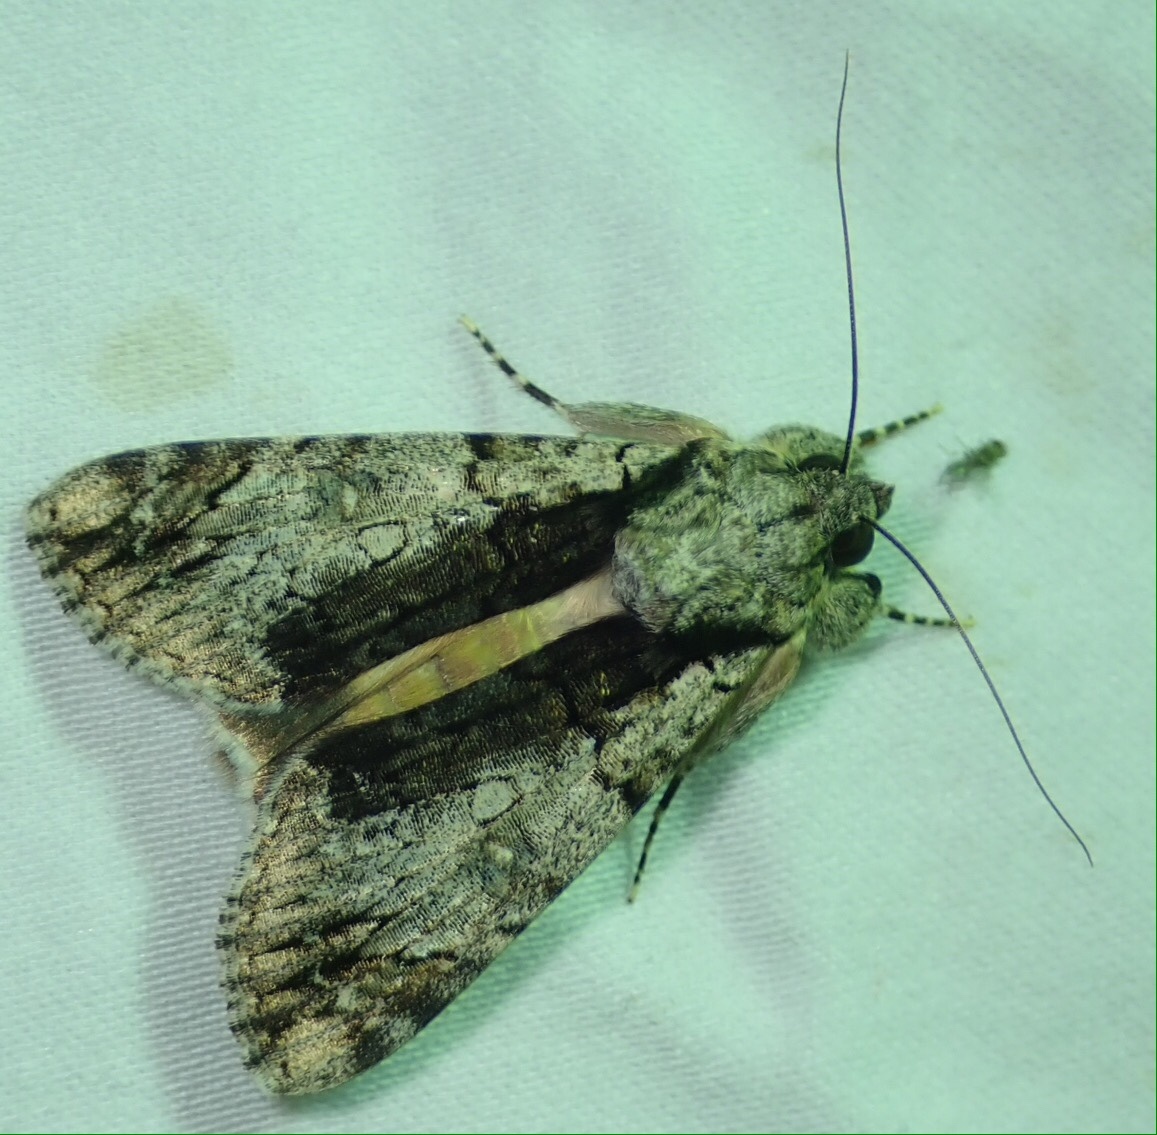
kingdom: Animalia
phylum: Arthropoda
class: Insecta
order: Lepidoptera
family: Erebidae
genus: Ulotrichopus
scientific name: Ulotrichopus tinctipennis
